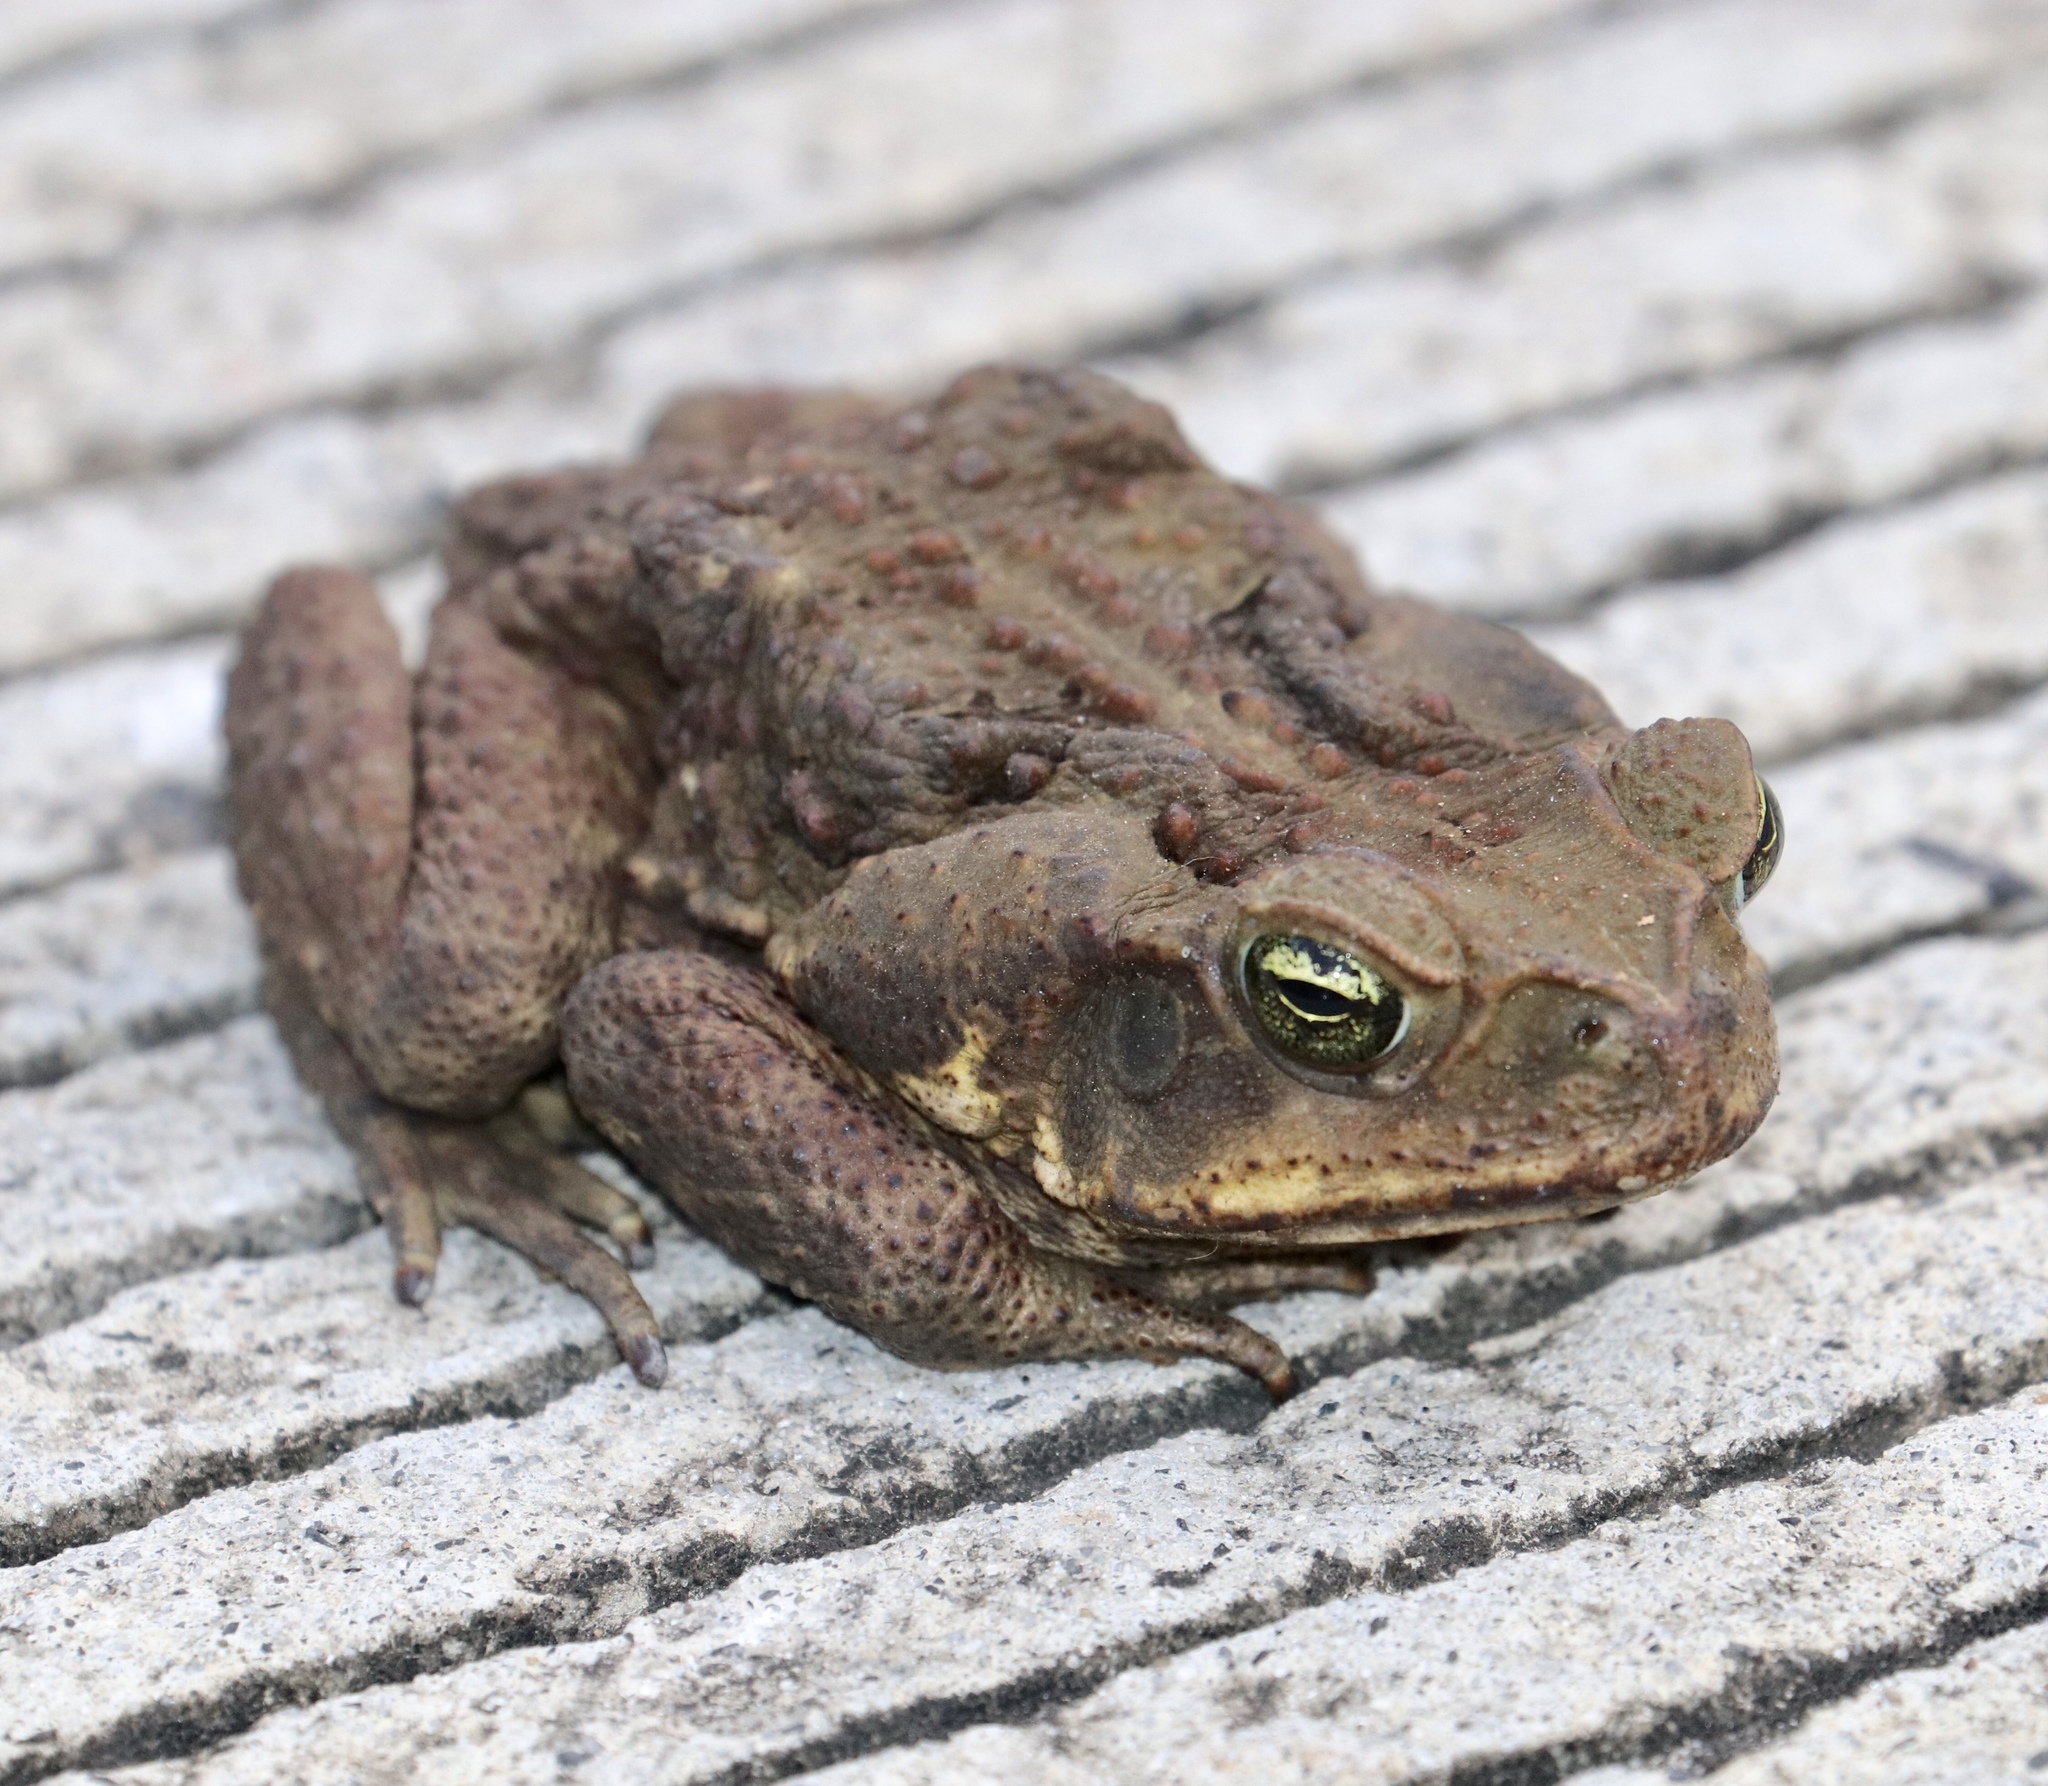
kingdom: Animalia
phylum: Chordata
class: Amphibia
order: Anura
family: Bufonidae
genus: Rhinella
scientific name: Rhinella horribilis
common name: Mesoamerican cane toad
